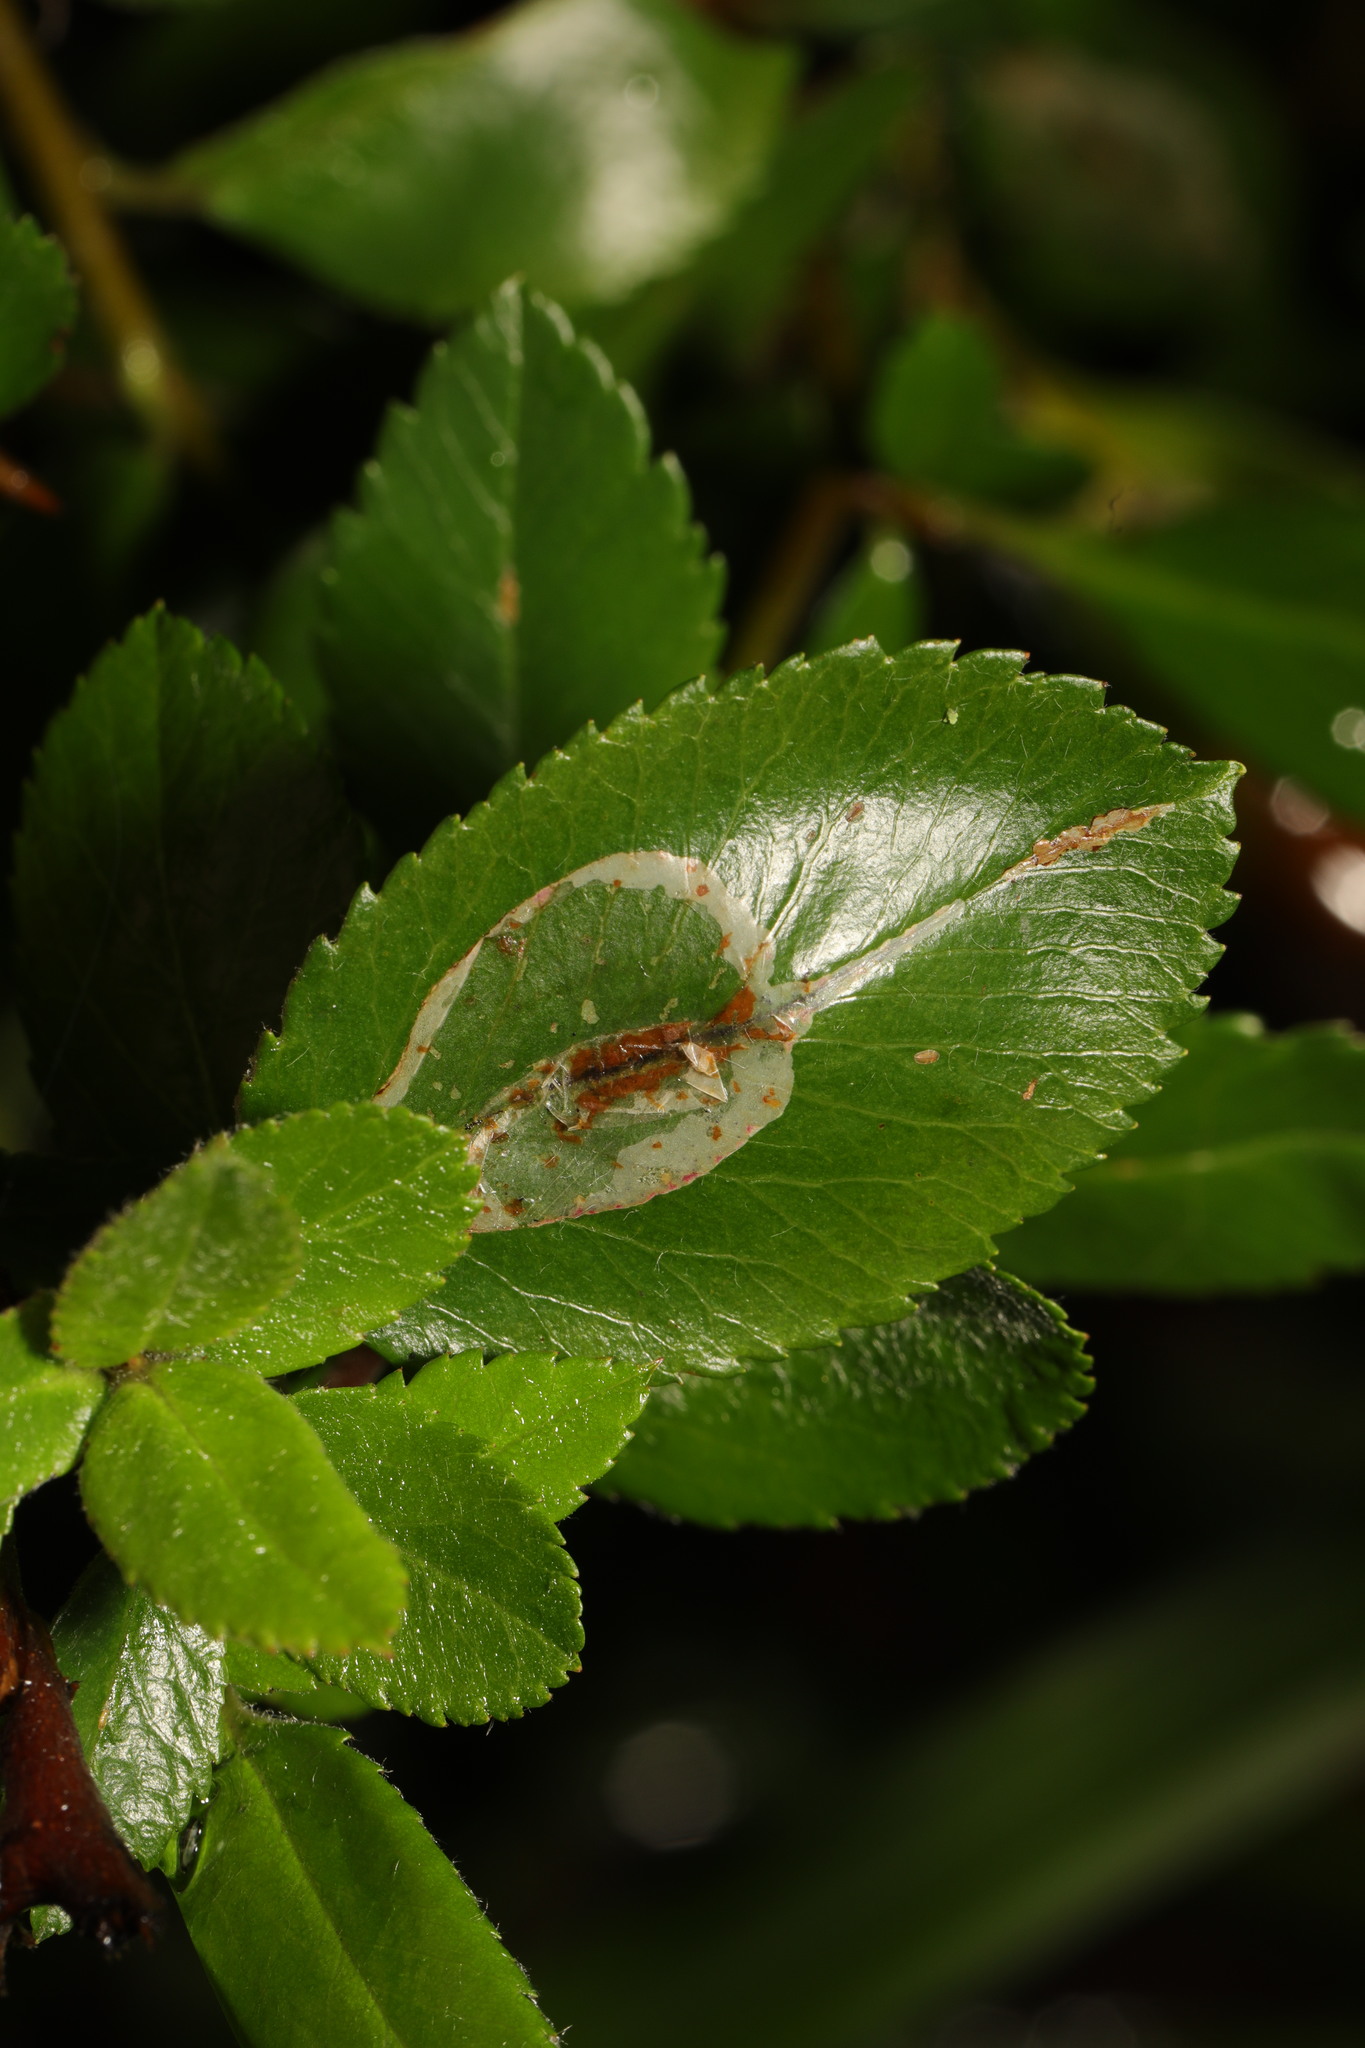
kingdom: Animalia
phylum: Arthropoda
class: Insecta
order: Lepidoptera
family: Gracillariidae
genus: Phyllonorycter
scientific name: Phyllonorycter leucographella
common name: Firethorn leaf-miner
